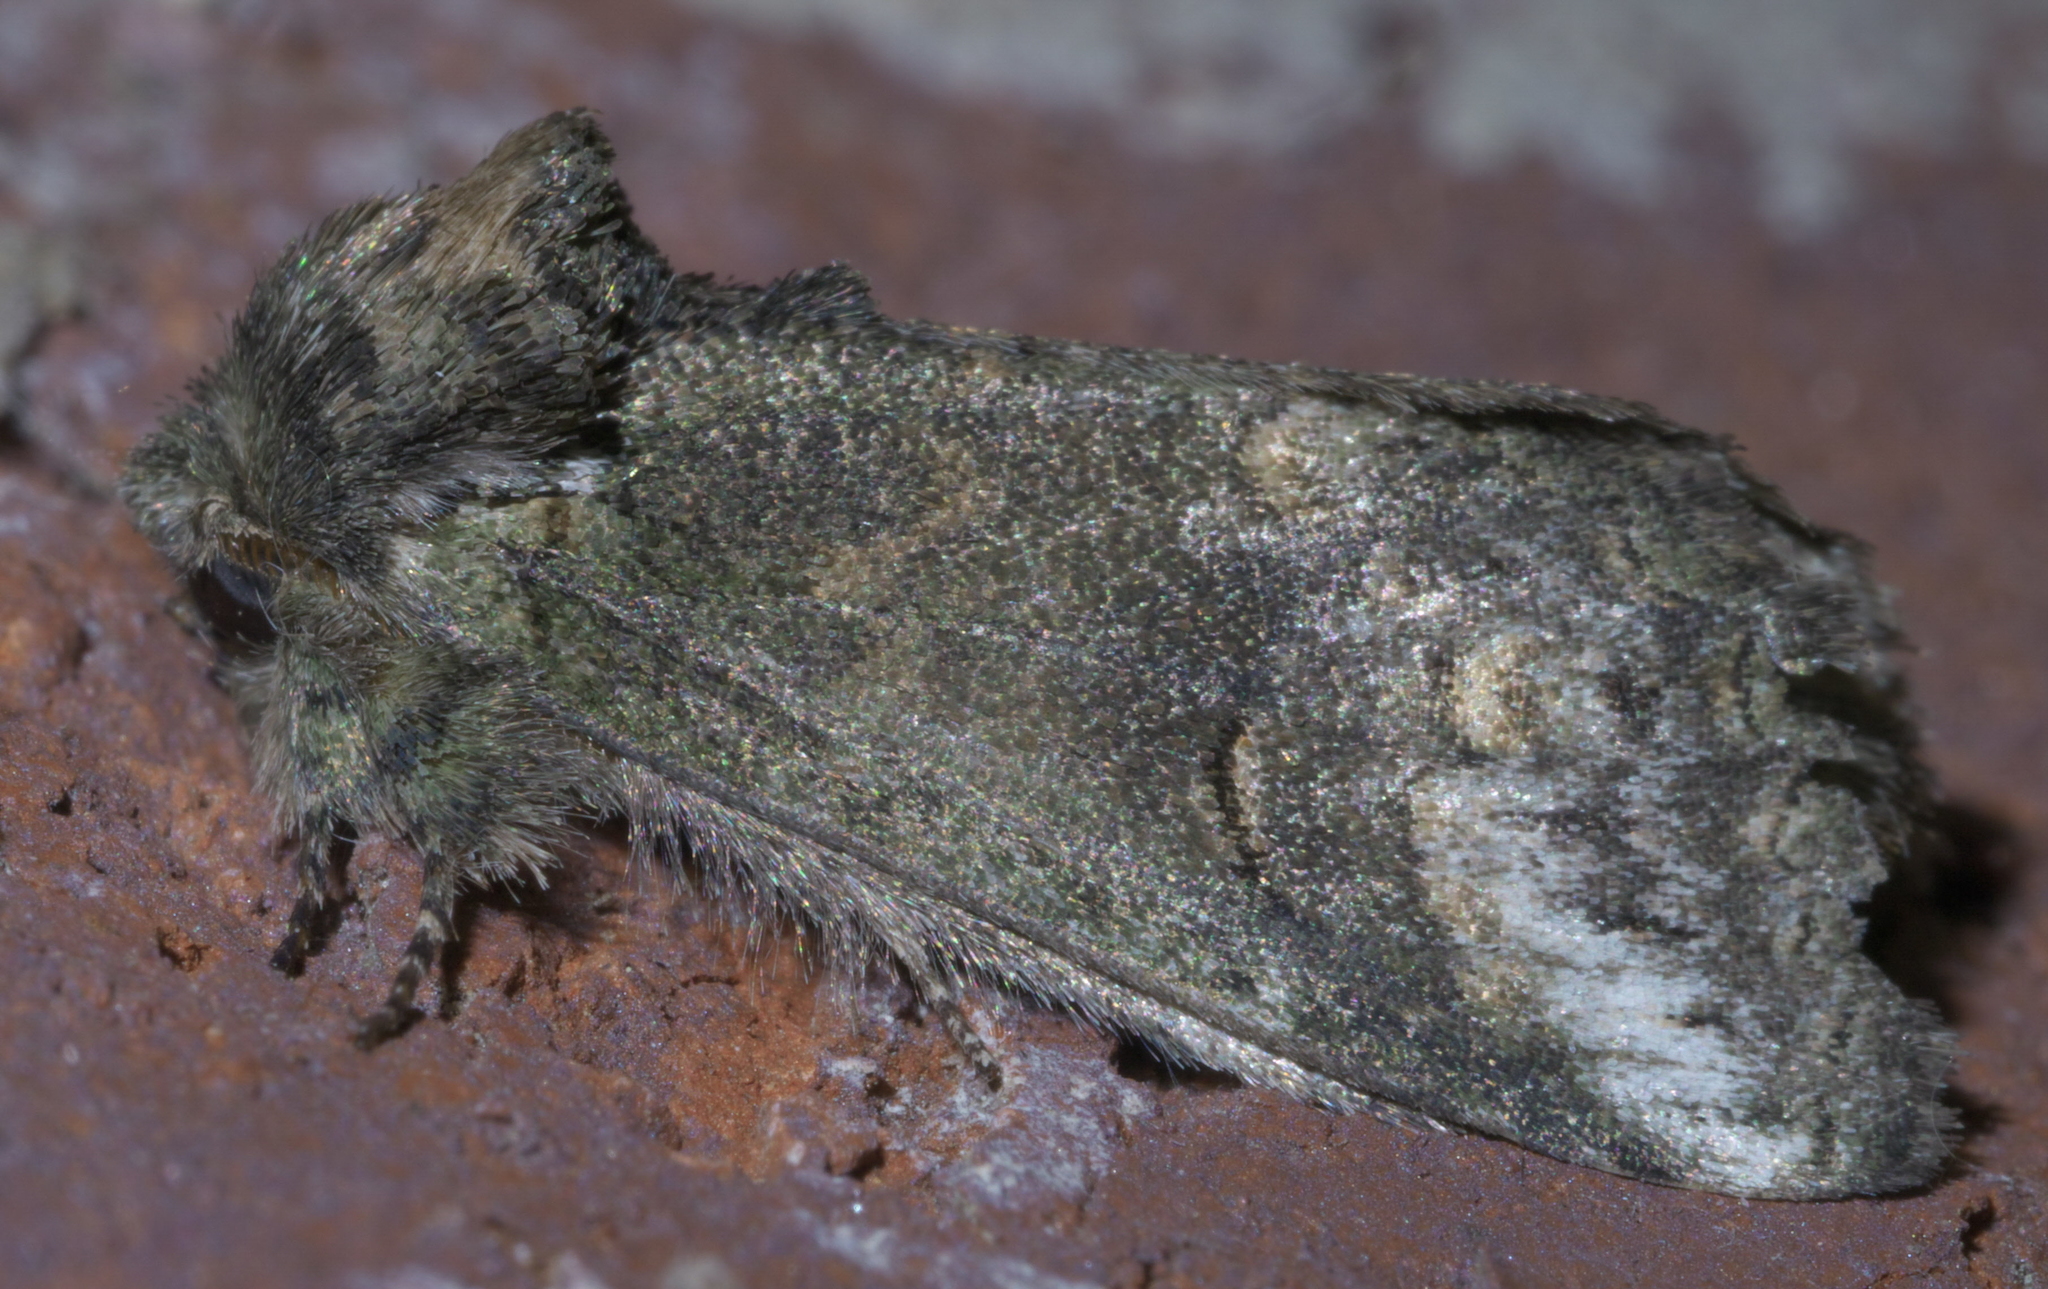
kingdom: Animalia
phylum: Arthropoda
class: Insecta
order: Lepidoptera
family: Notodontidae
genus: Rifargia
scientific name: Rifargia
